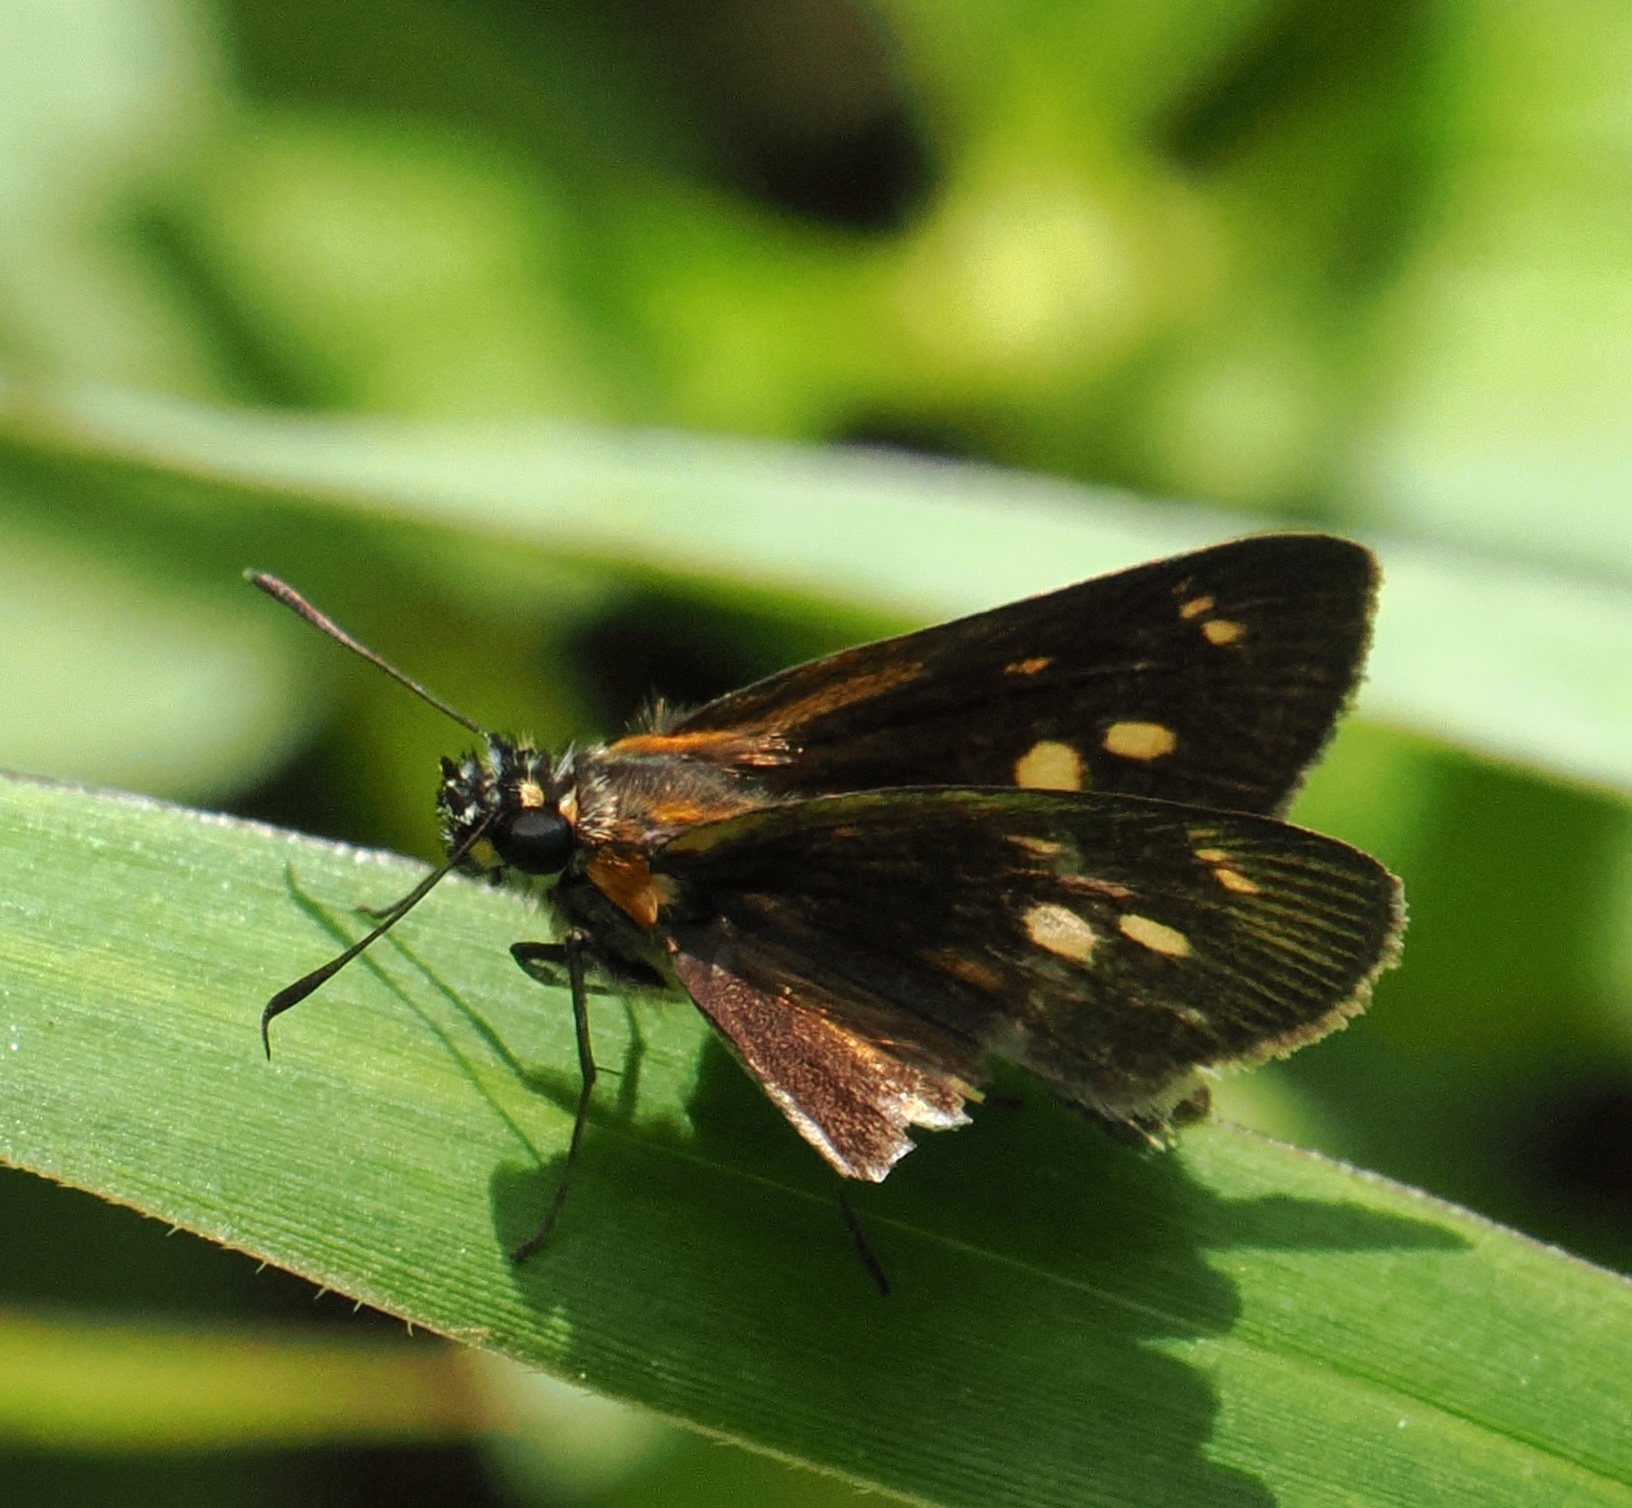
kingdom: Animalia
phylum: Arthropoda
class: Insecta
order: Lepidoptera
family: Hesperiidae
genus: Vehilius
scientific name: Vehilius clavicula
